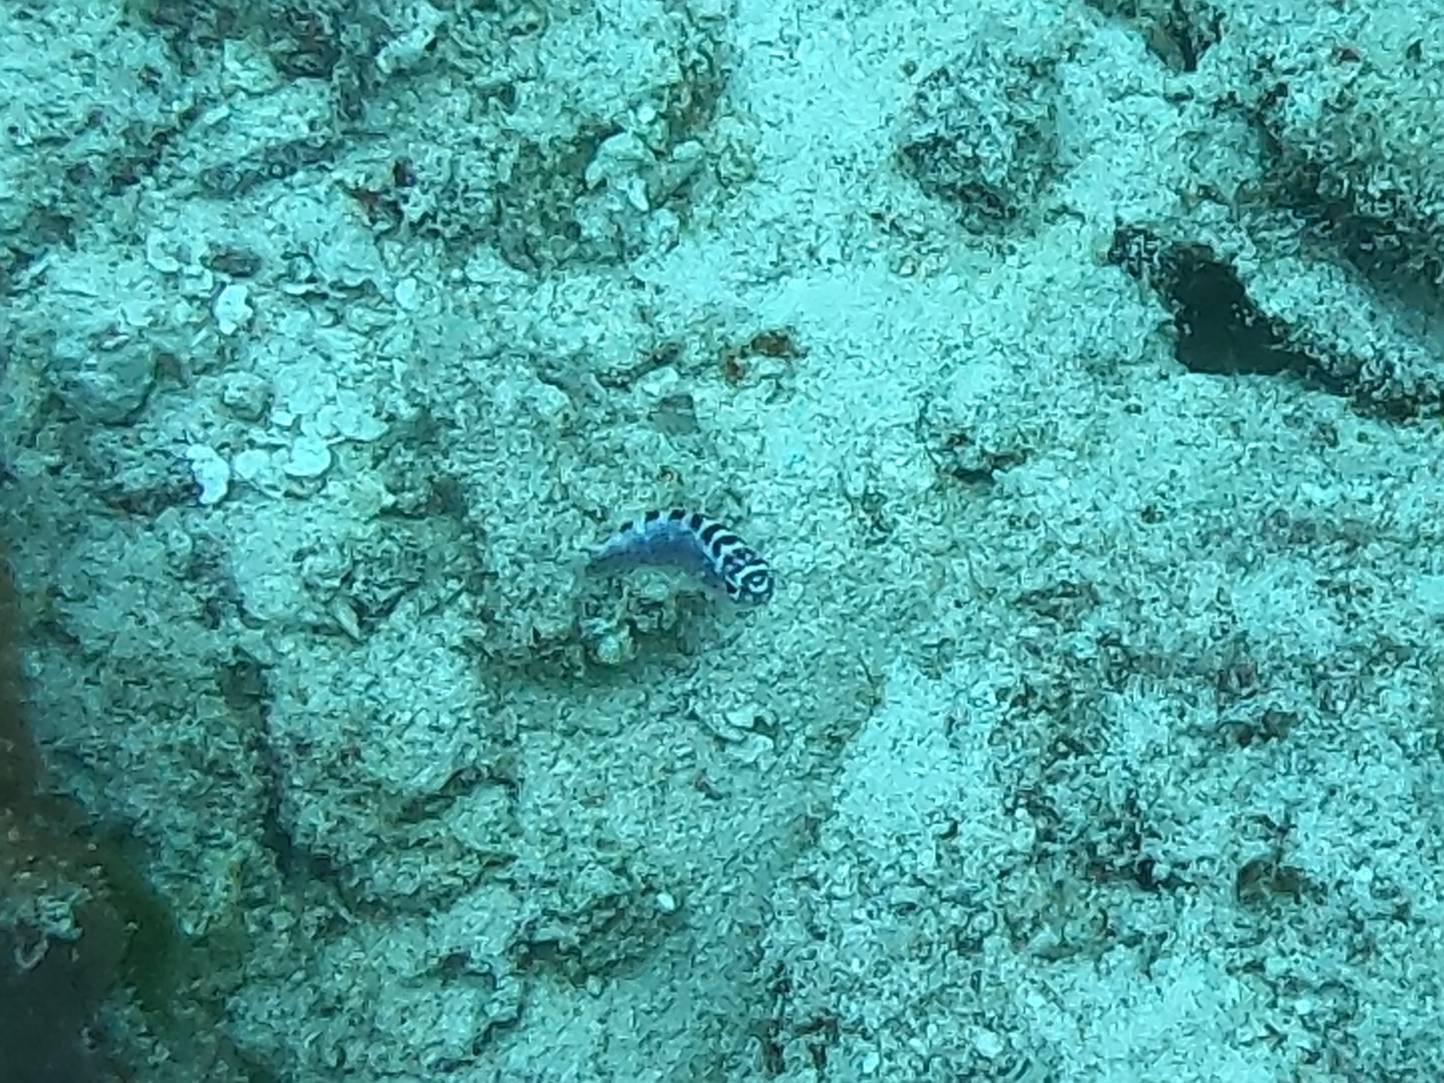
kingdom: Animalia
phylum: Chordata
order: Perciformes
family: Serranidae
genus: Serranus
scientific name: Serranus tortugarum
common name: Chalk bass
